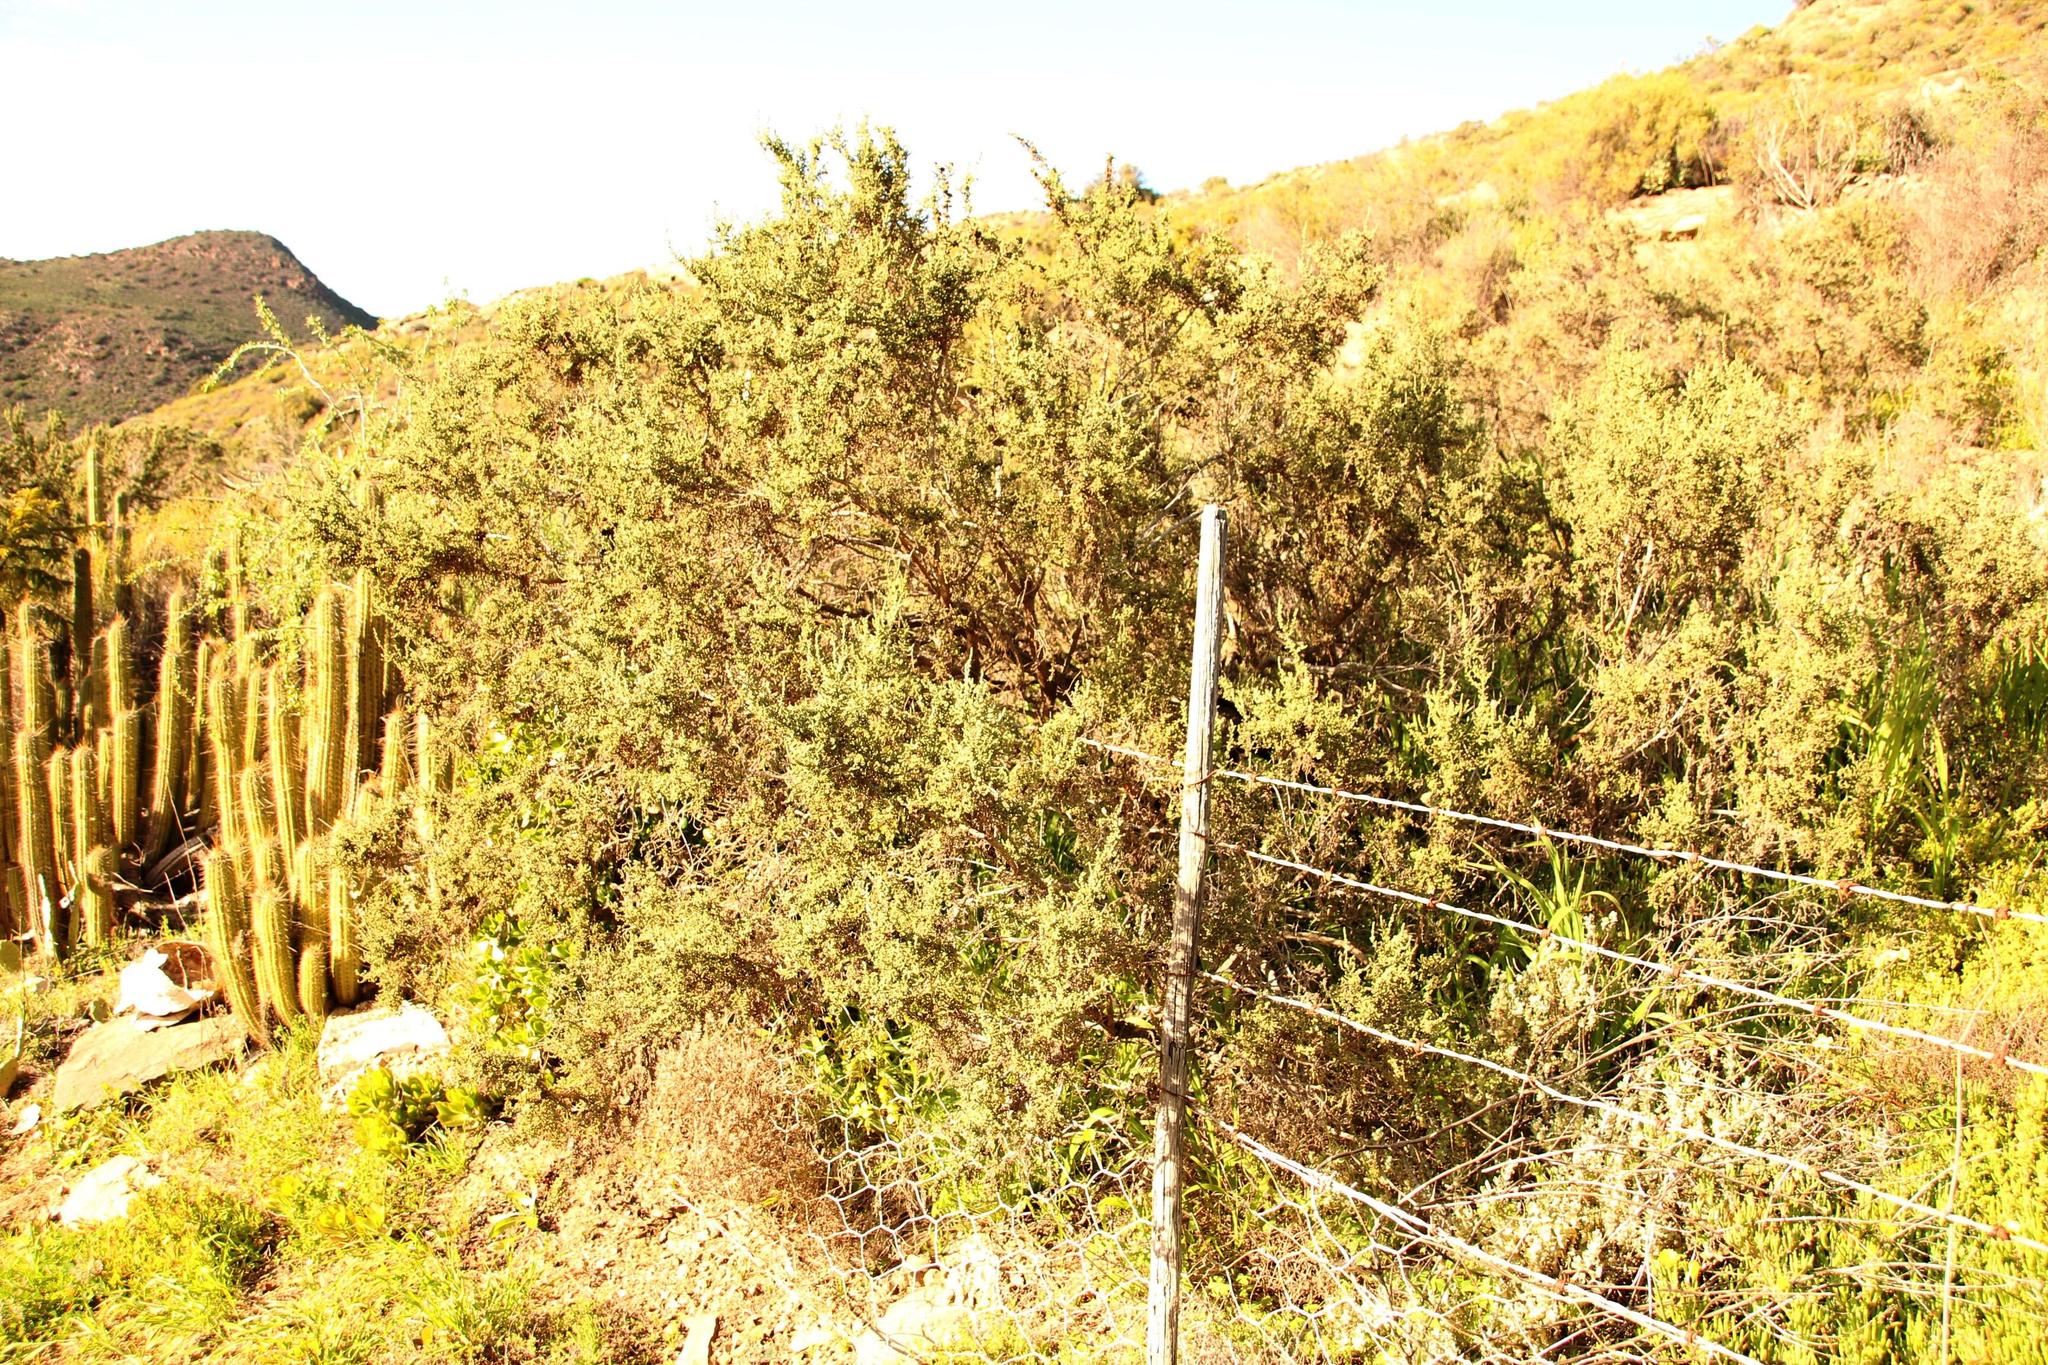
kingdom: Plantae
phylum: Tracheophyta
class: Magnoliopsida
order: Caryophyllales
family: Amaranthaceae
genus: Caroxylon
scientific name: Caroxylon aphyllum
